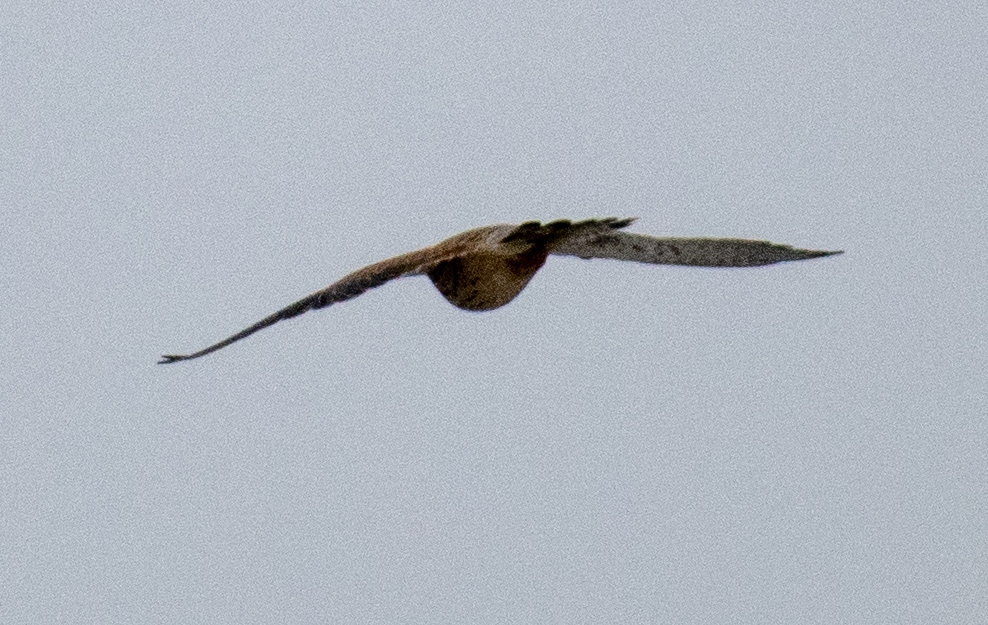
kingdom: Animalia
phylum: Chordata
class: Aves
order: Falconiformes
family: Falconidae
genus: Falco
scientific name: Falco tinnunculus
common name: Common kestrel
